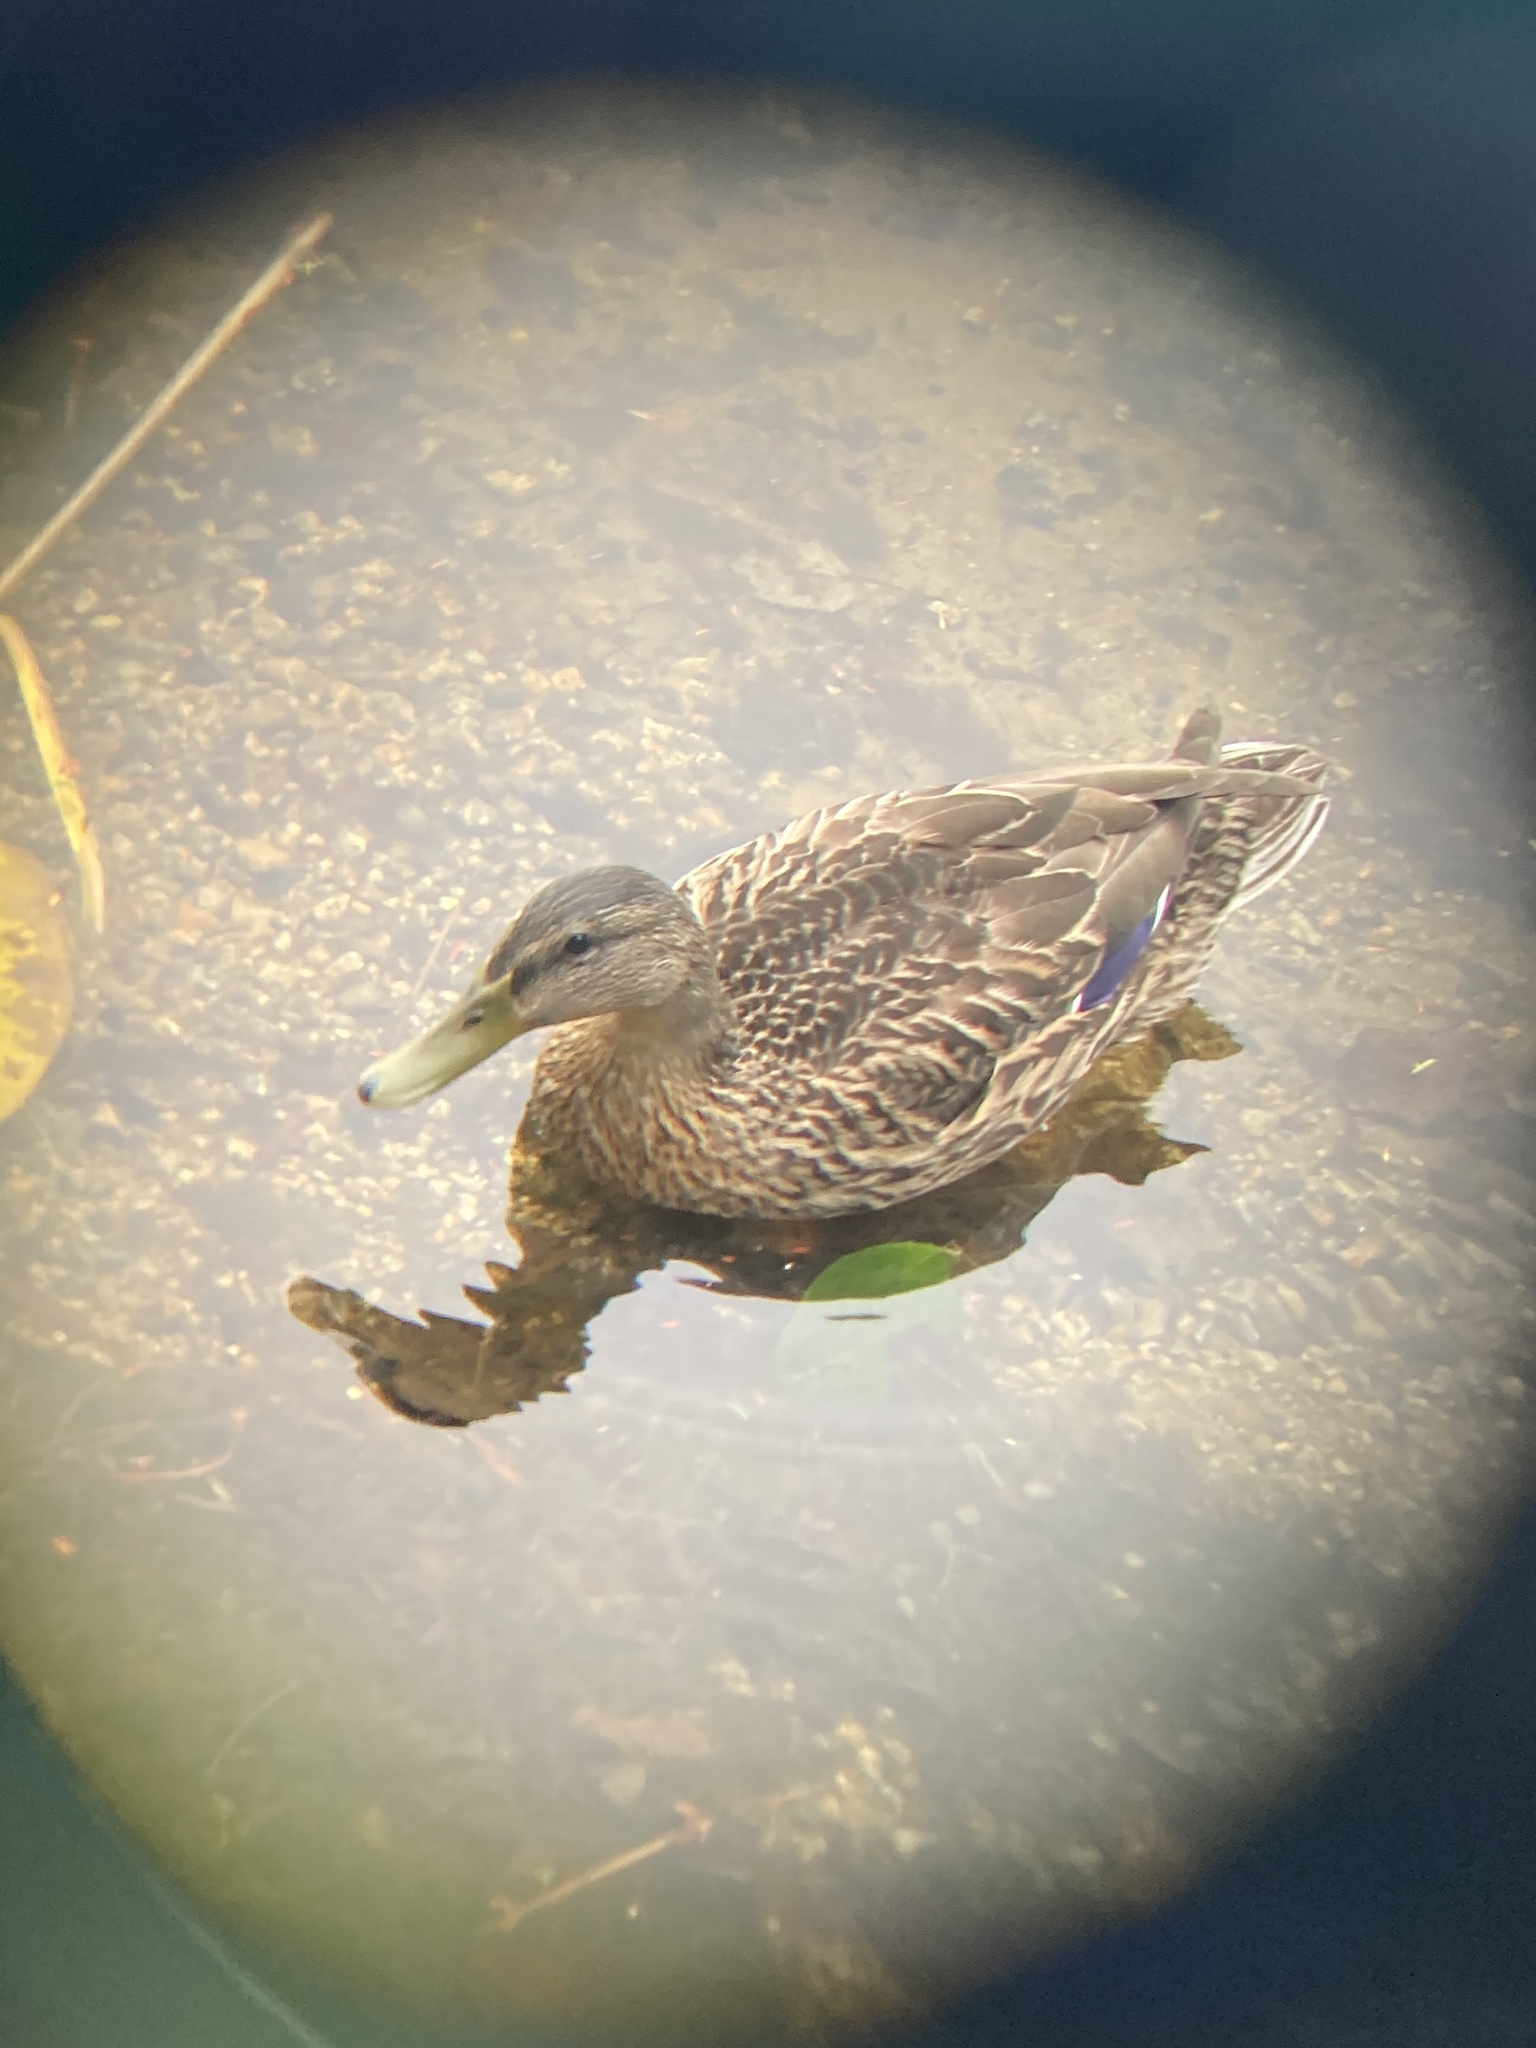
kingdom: Animalia
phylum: Chordata
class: Aves
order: Anseriformes
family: Anatidae
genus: Anas
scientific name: Anas platyrhynchos
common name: Mallard
